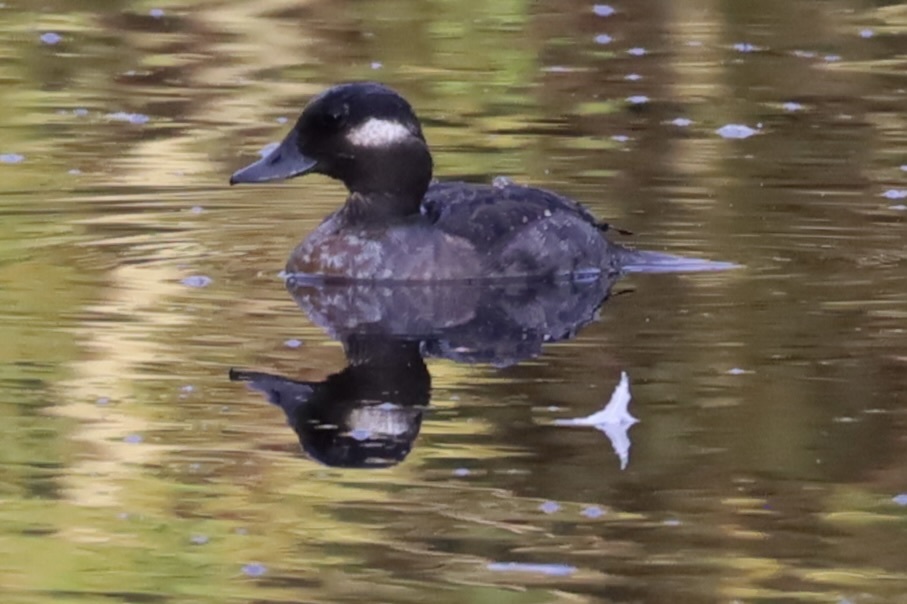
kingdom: Animalia
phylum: Chordata
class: Aves
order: Anseriformes
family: Anatidae
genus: Bucephala
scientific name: Bucephala albeola
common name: Bufflehead
